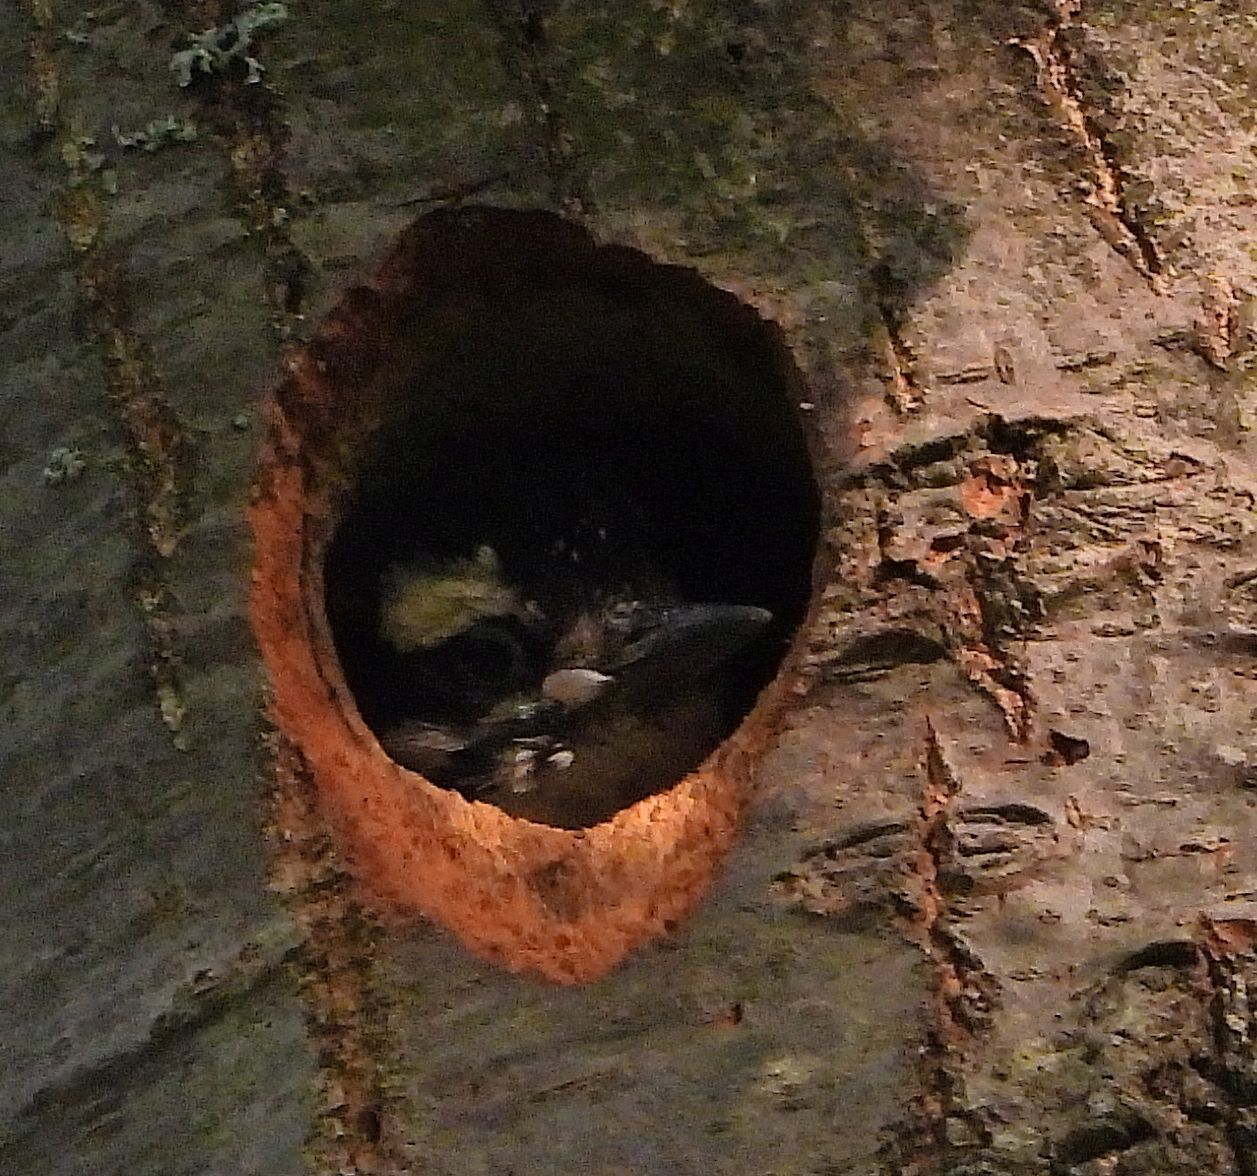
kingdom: Animalia
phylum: Chordata
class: Aves
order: Piciformes
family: Picidae
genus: Leuconotopicus
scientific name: Leuconotopicus villosus
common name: Hairy woodpecker
